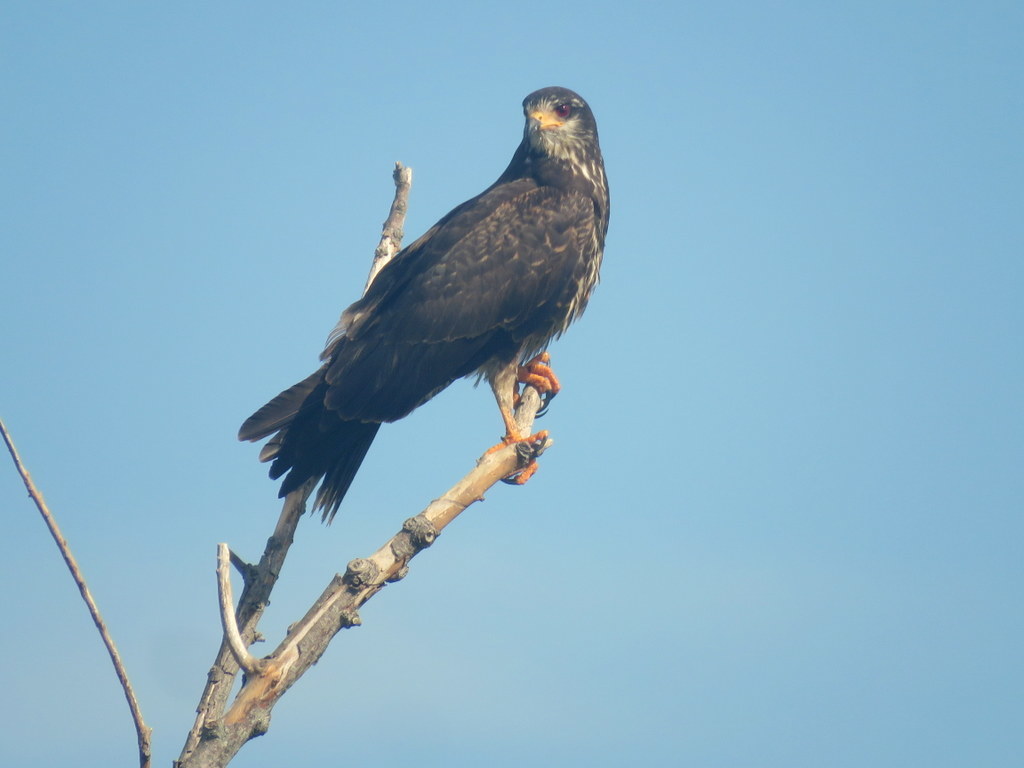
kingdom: Animalia
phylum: Chordata
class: Aves
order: Accipitriformes
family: Accipitridae
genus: Rostrhamus
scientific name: Rostrhamus sociabilis
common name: Snail kite
